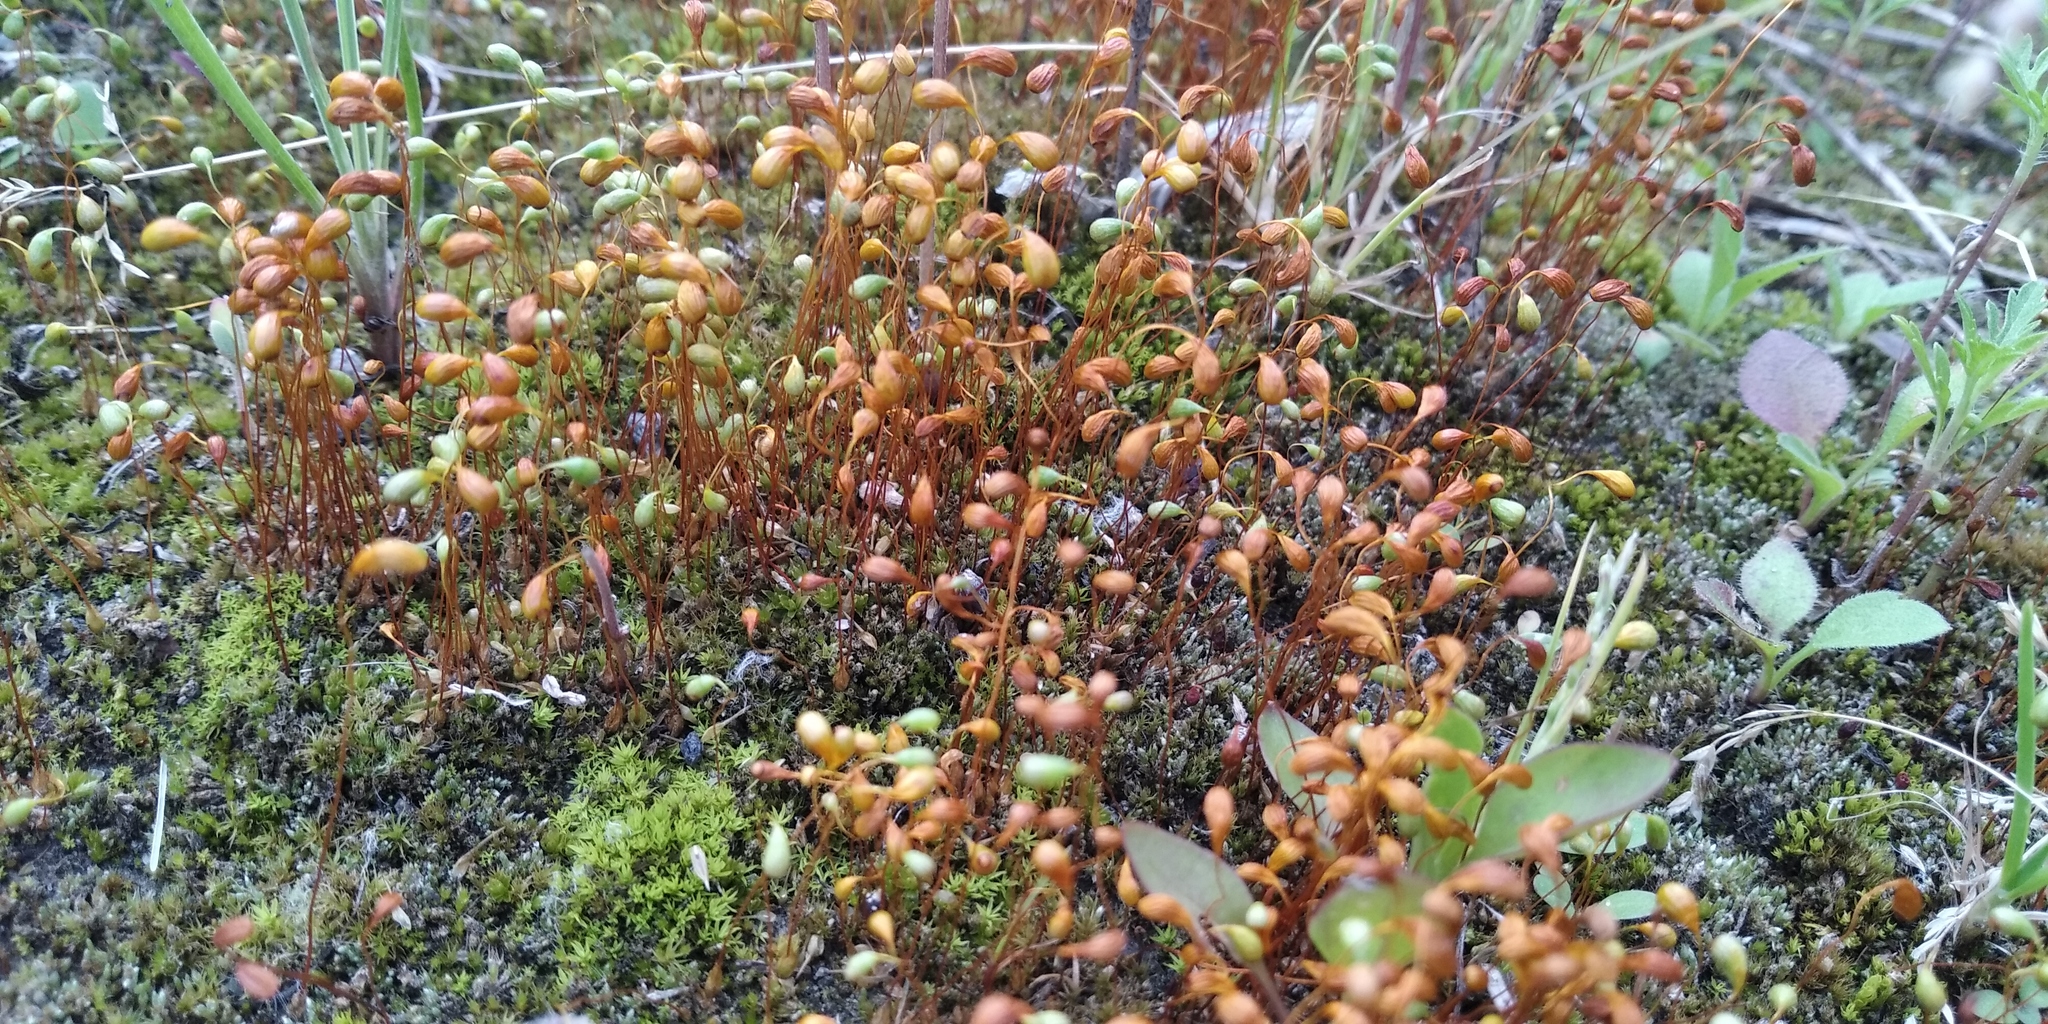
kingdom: Plantae
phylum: Bryophyta
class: Bryopsida
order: Funariales
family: Funariaceae
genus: Funaria
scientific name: Funaria hygrometrica
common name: Common cord moss
